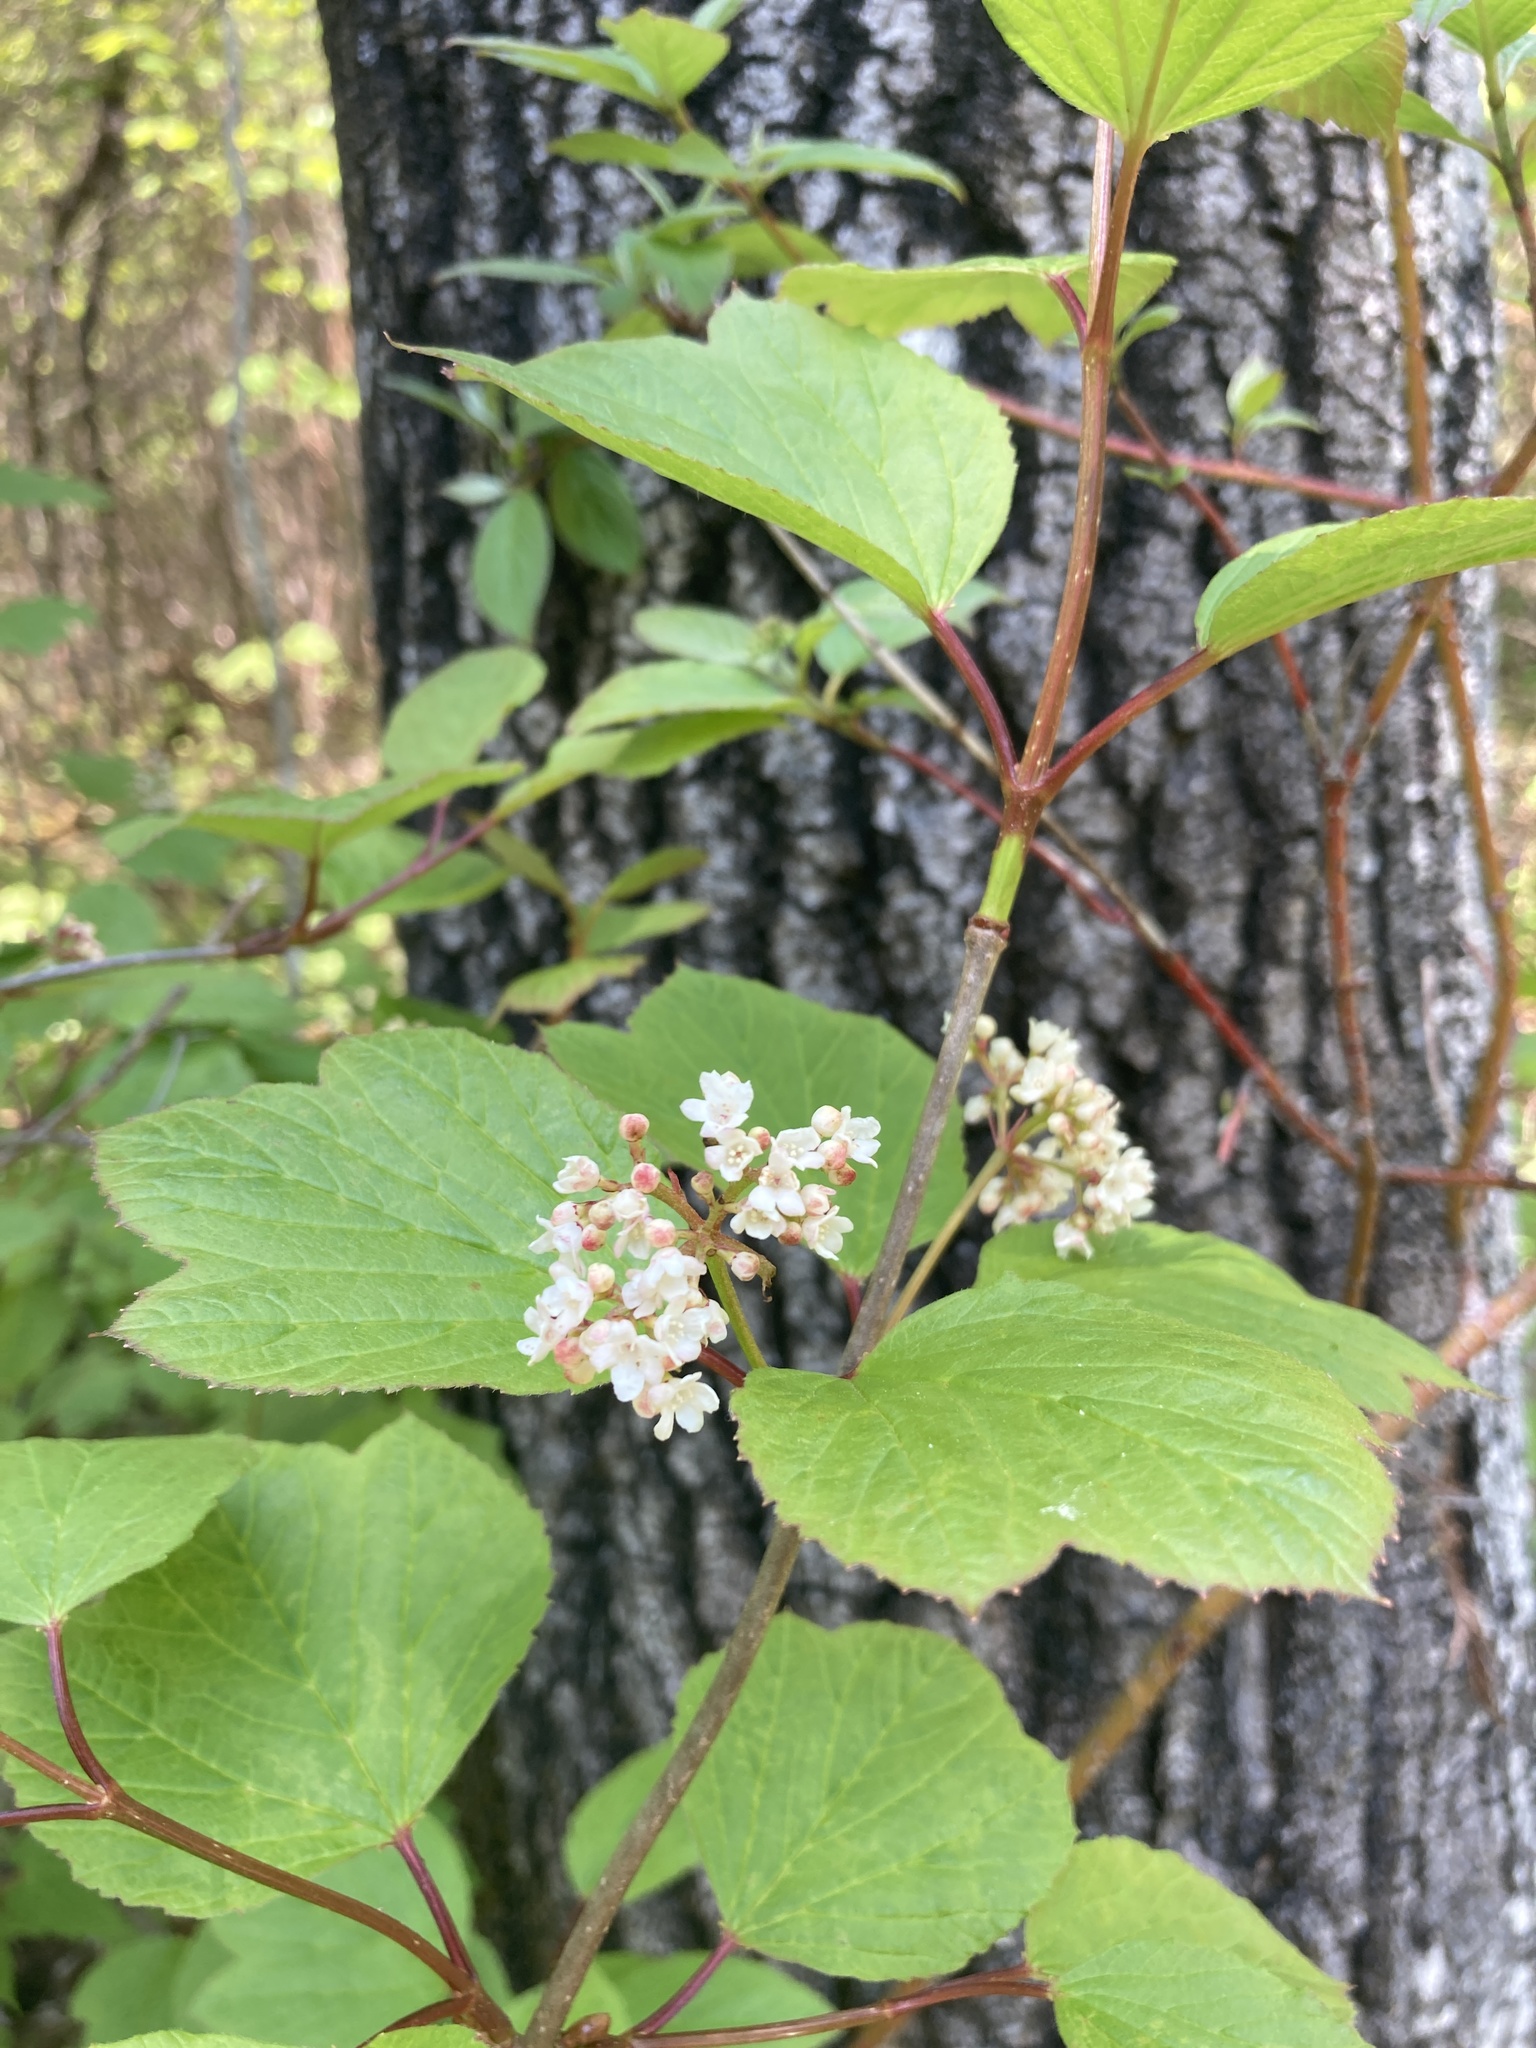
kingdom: Plantae
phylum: Tracheophyta
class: Magnoliopsida
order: Dipsacales
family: Viburnaceae
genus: Viburnum
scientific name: Viburnum edule
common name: Mooseberry
